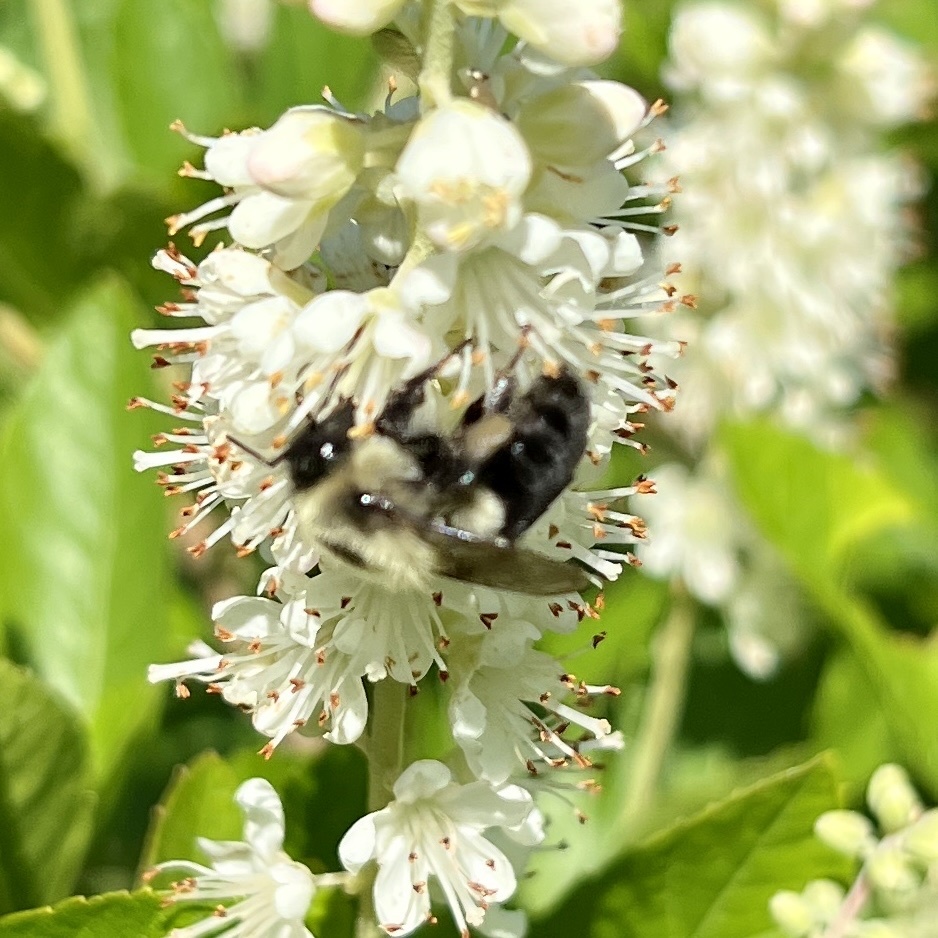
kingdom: Animalia
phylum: Arthropoda
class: Insecta
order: Hymenoptera
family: Apidae
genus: Bombus
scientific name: Bombus impatiens
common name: Common eastern bumble bee
